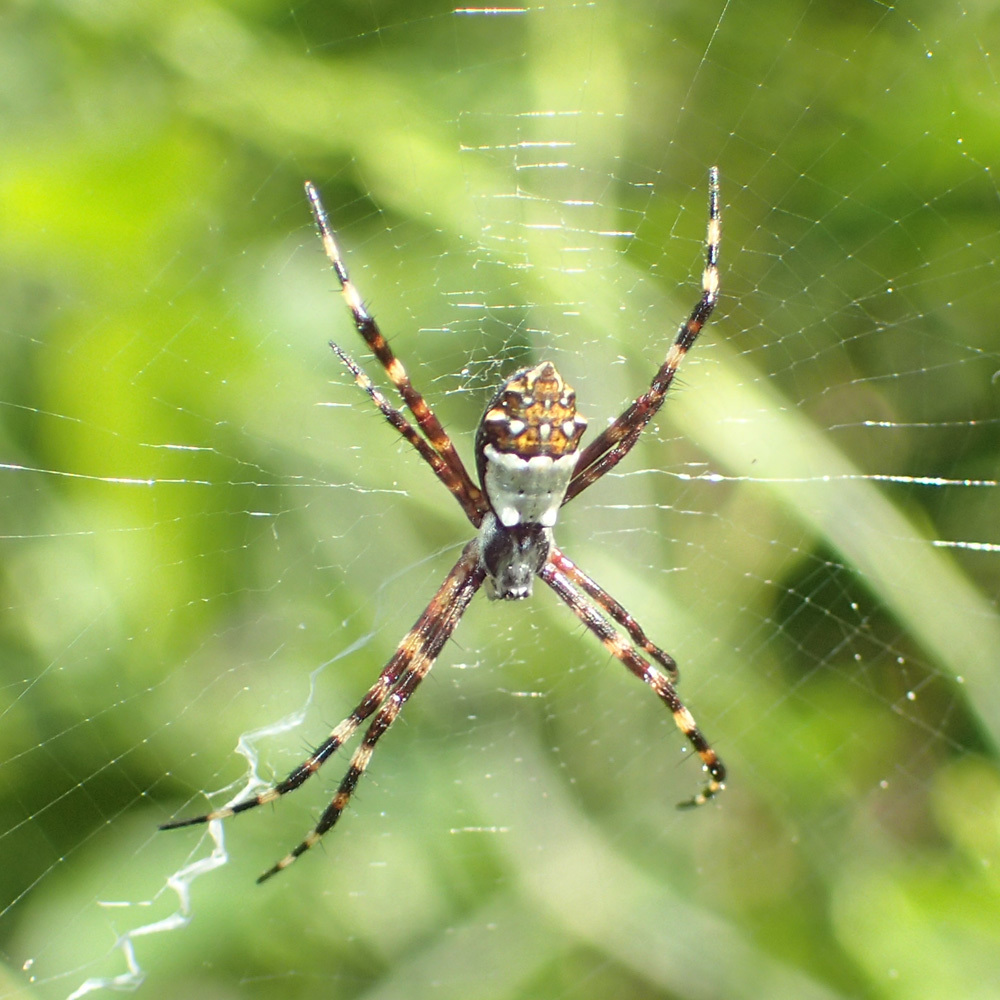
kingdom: Animalia
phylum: Arthropoda
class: Arachnida
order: Araneae
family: Araneidae
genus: Argiope
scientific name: Argiope argentata
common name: Orb weavers
